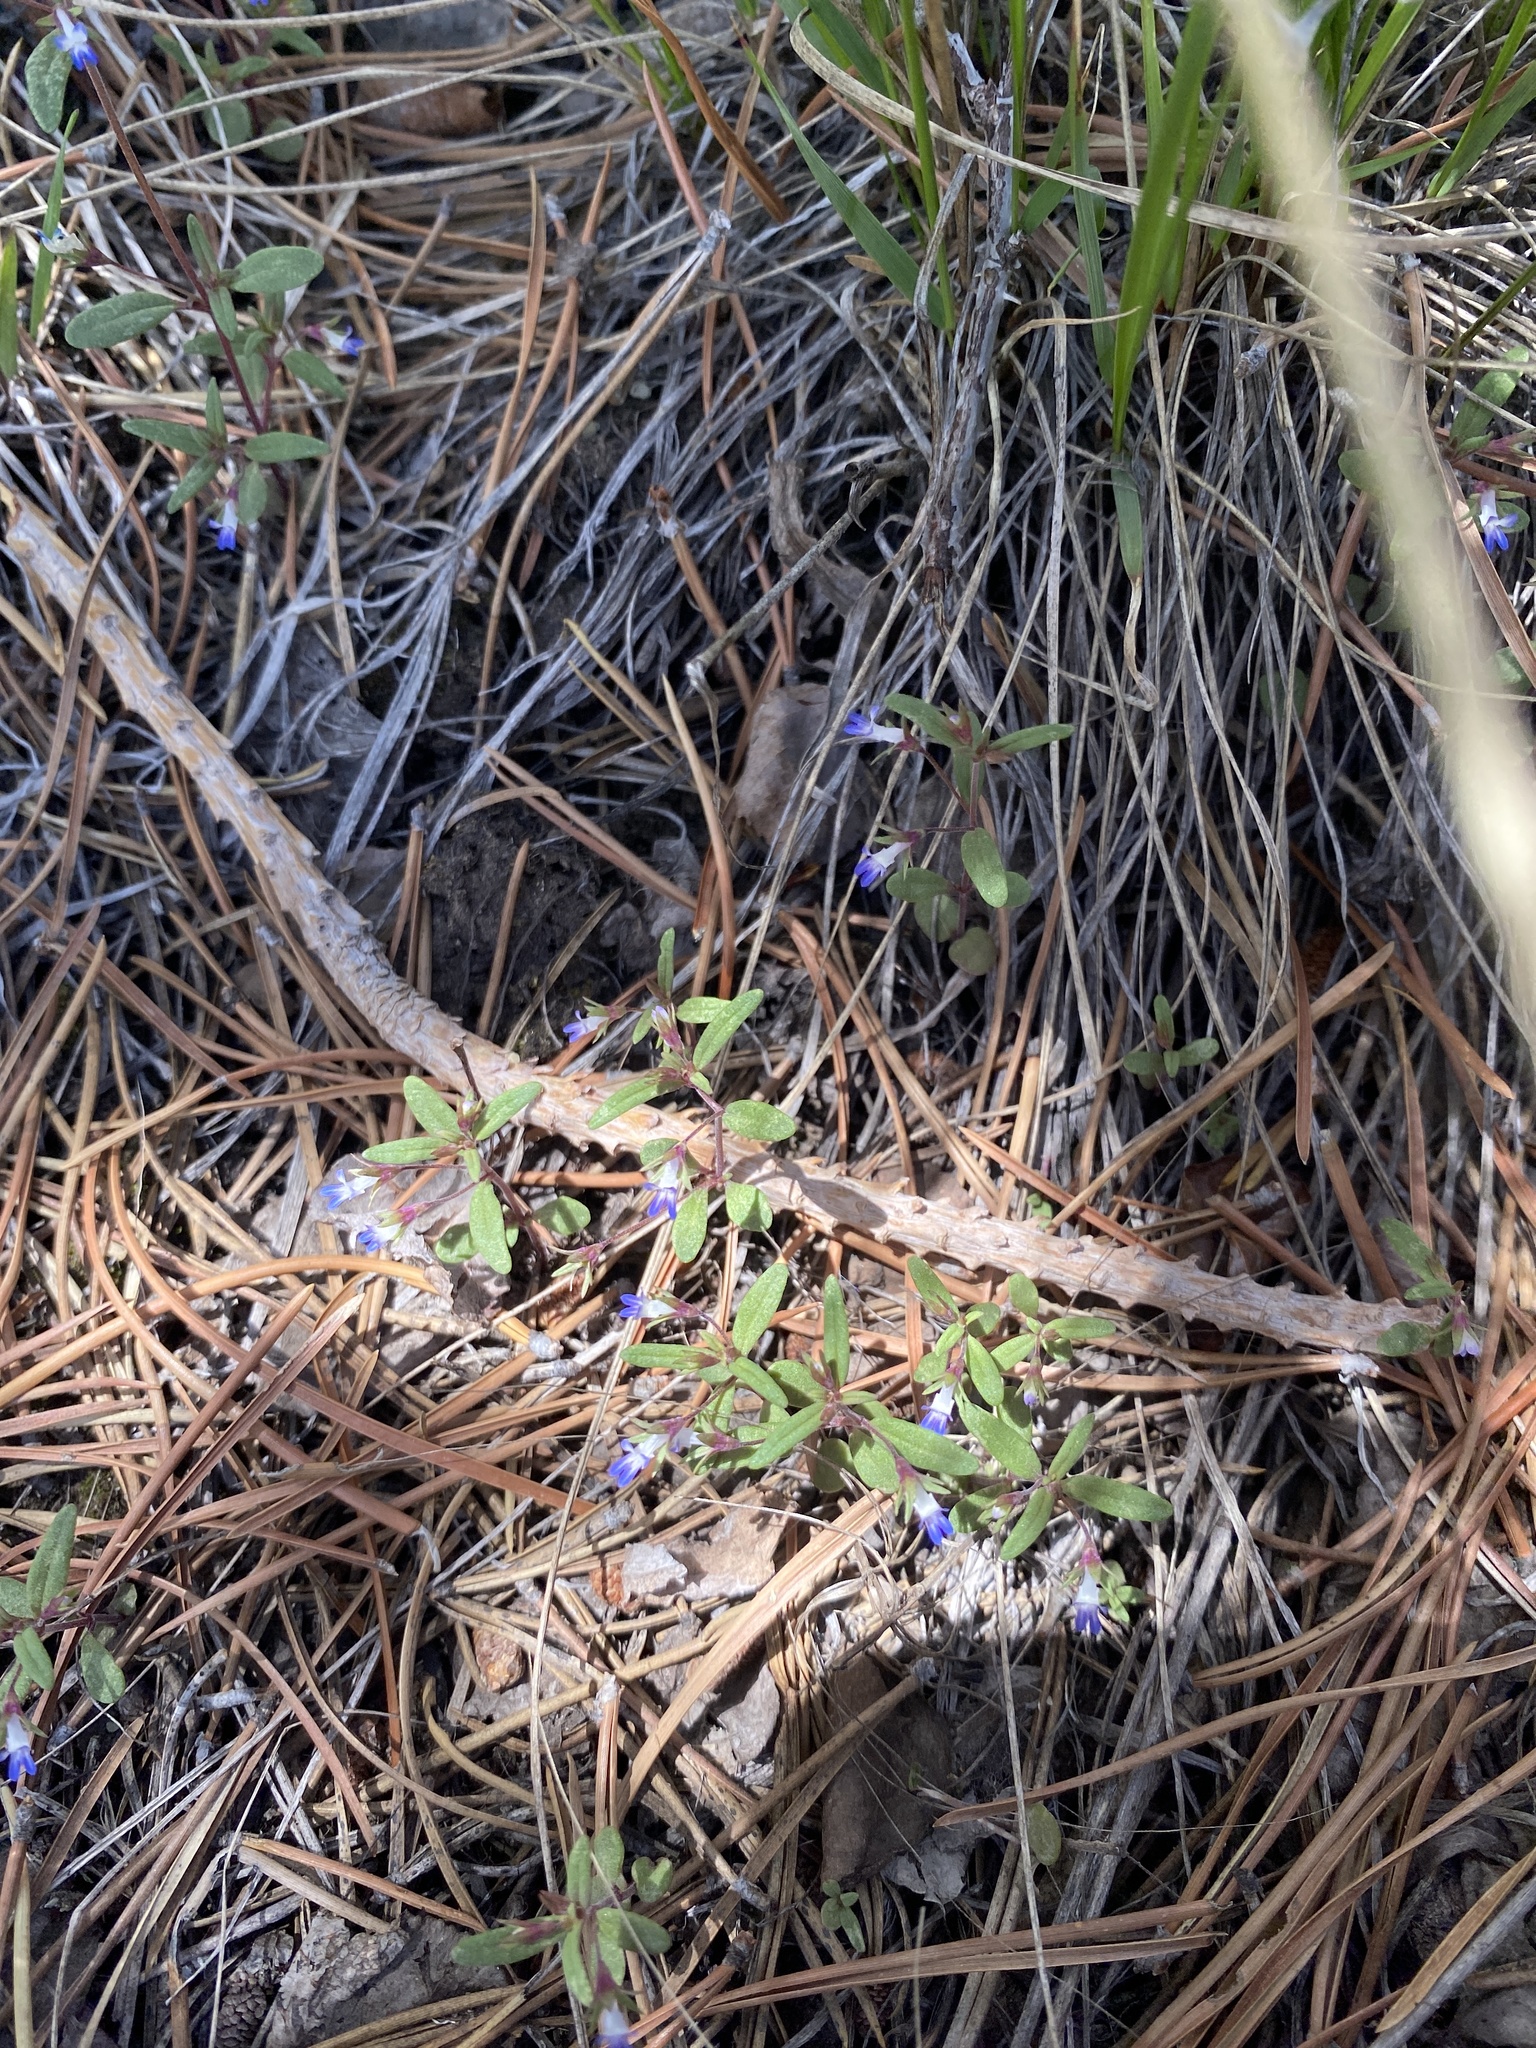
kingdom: Plantae
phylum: Tracheophyta
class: Magnoliopsida
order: Lamiales
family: Plantaginaceae
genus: Collinsia
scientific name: Collinsia parviflora
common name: Blue-lips
